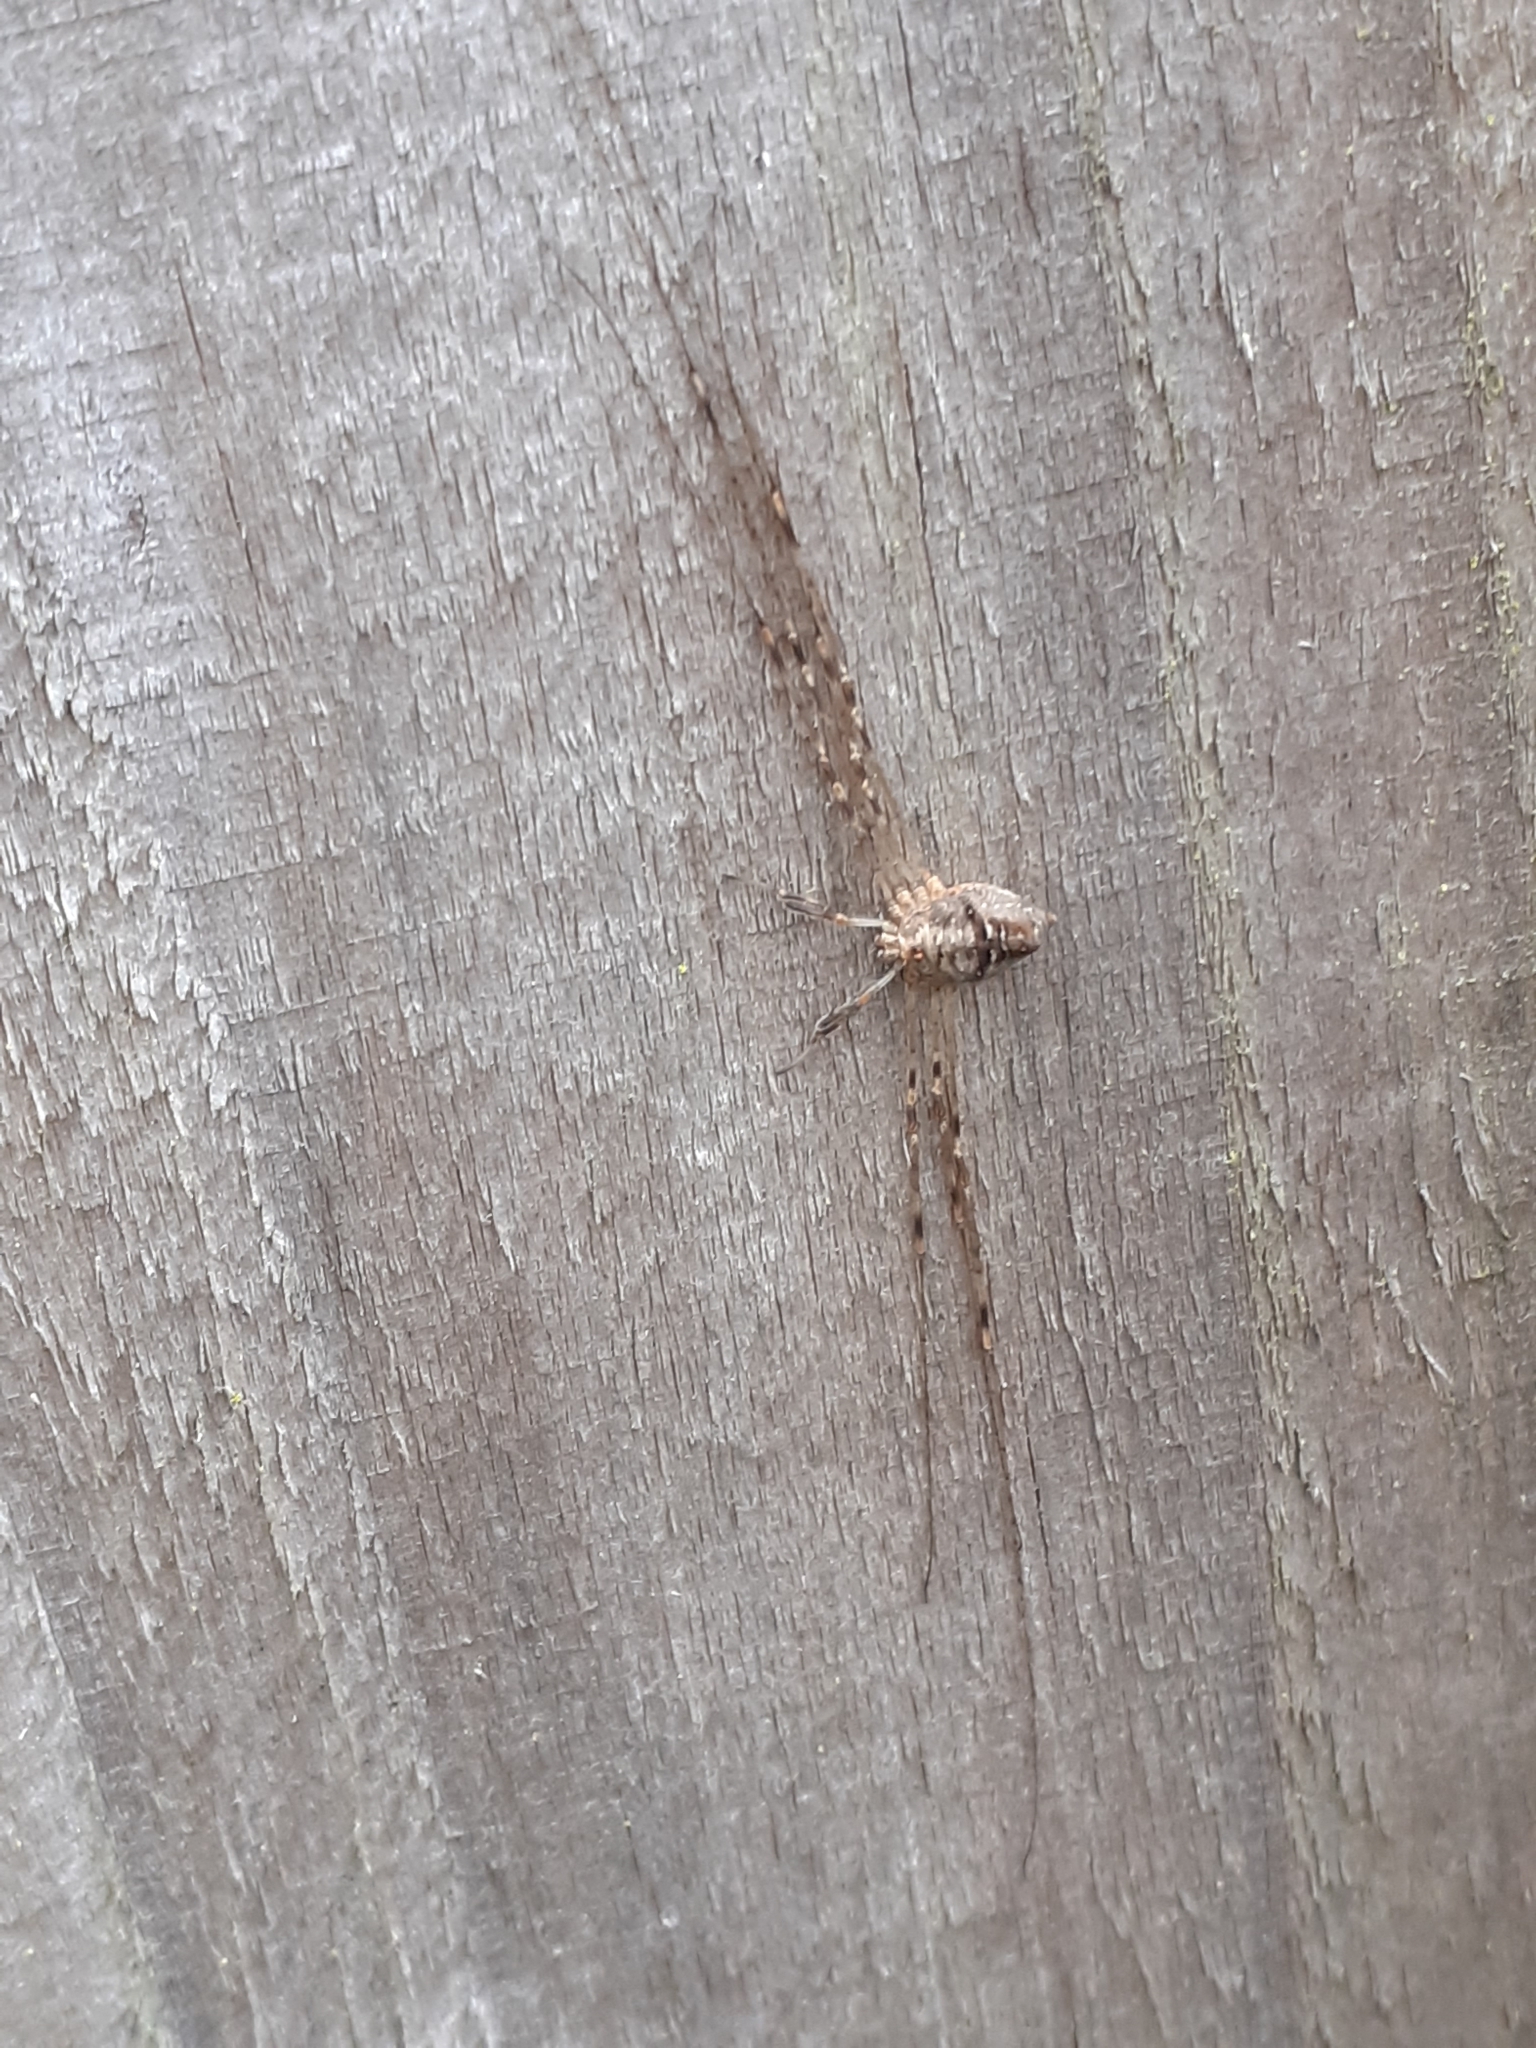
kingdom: Animalia
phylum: Arthropoda
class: Arachnida
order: Opiliones
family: Phalangiidae
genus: Dicranopalpus
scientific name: Dicranopalpus ramosus
